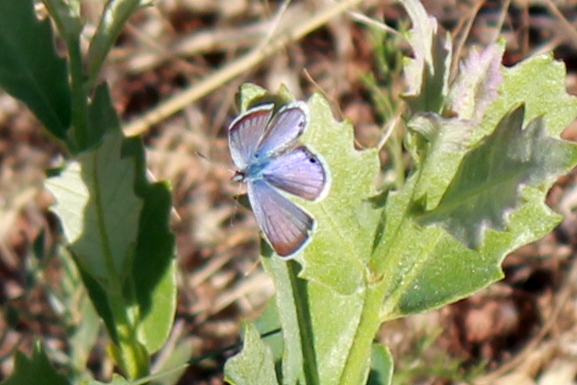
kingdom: Animalia
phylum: Arthropoda
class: Insecta
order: Lepidoptera
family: Lycaenidae
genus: Echinargus
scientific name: Echinargus isola
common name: Reakirt's blue
